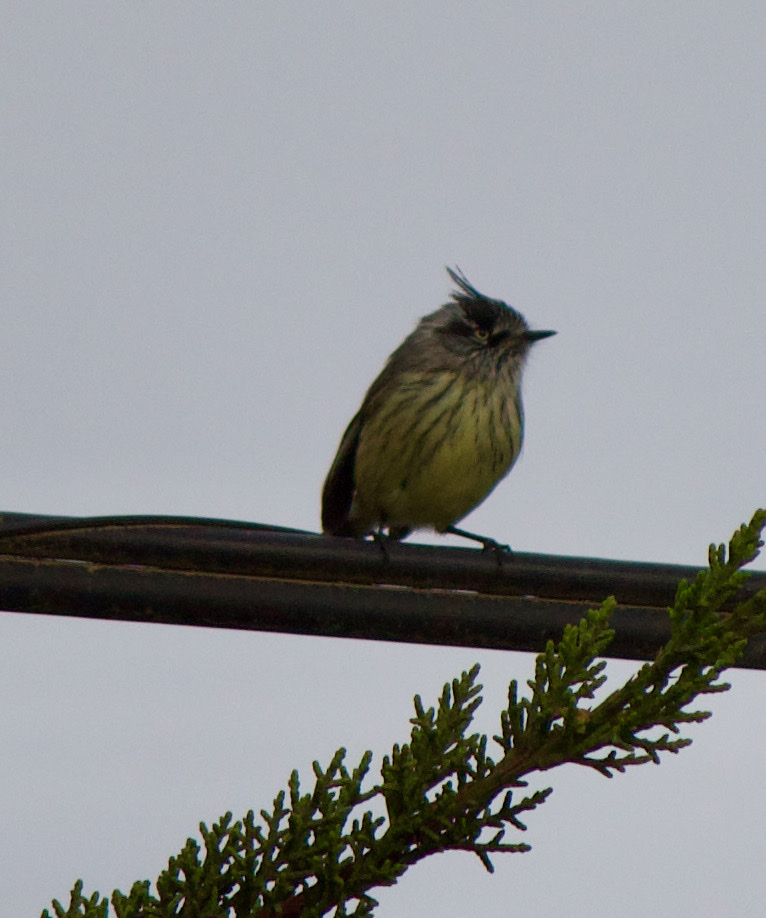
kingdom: Animalia
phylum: Chordata
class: Aves
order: Passeriformes
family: Tyrannidae
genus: Anairetes
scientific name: Anairetes parulus
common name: Tufted tit-tyrant
